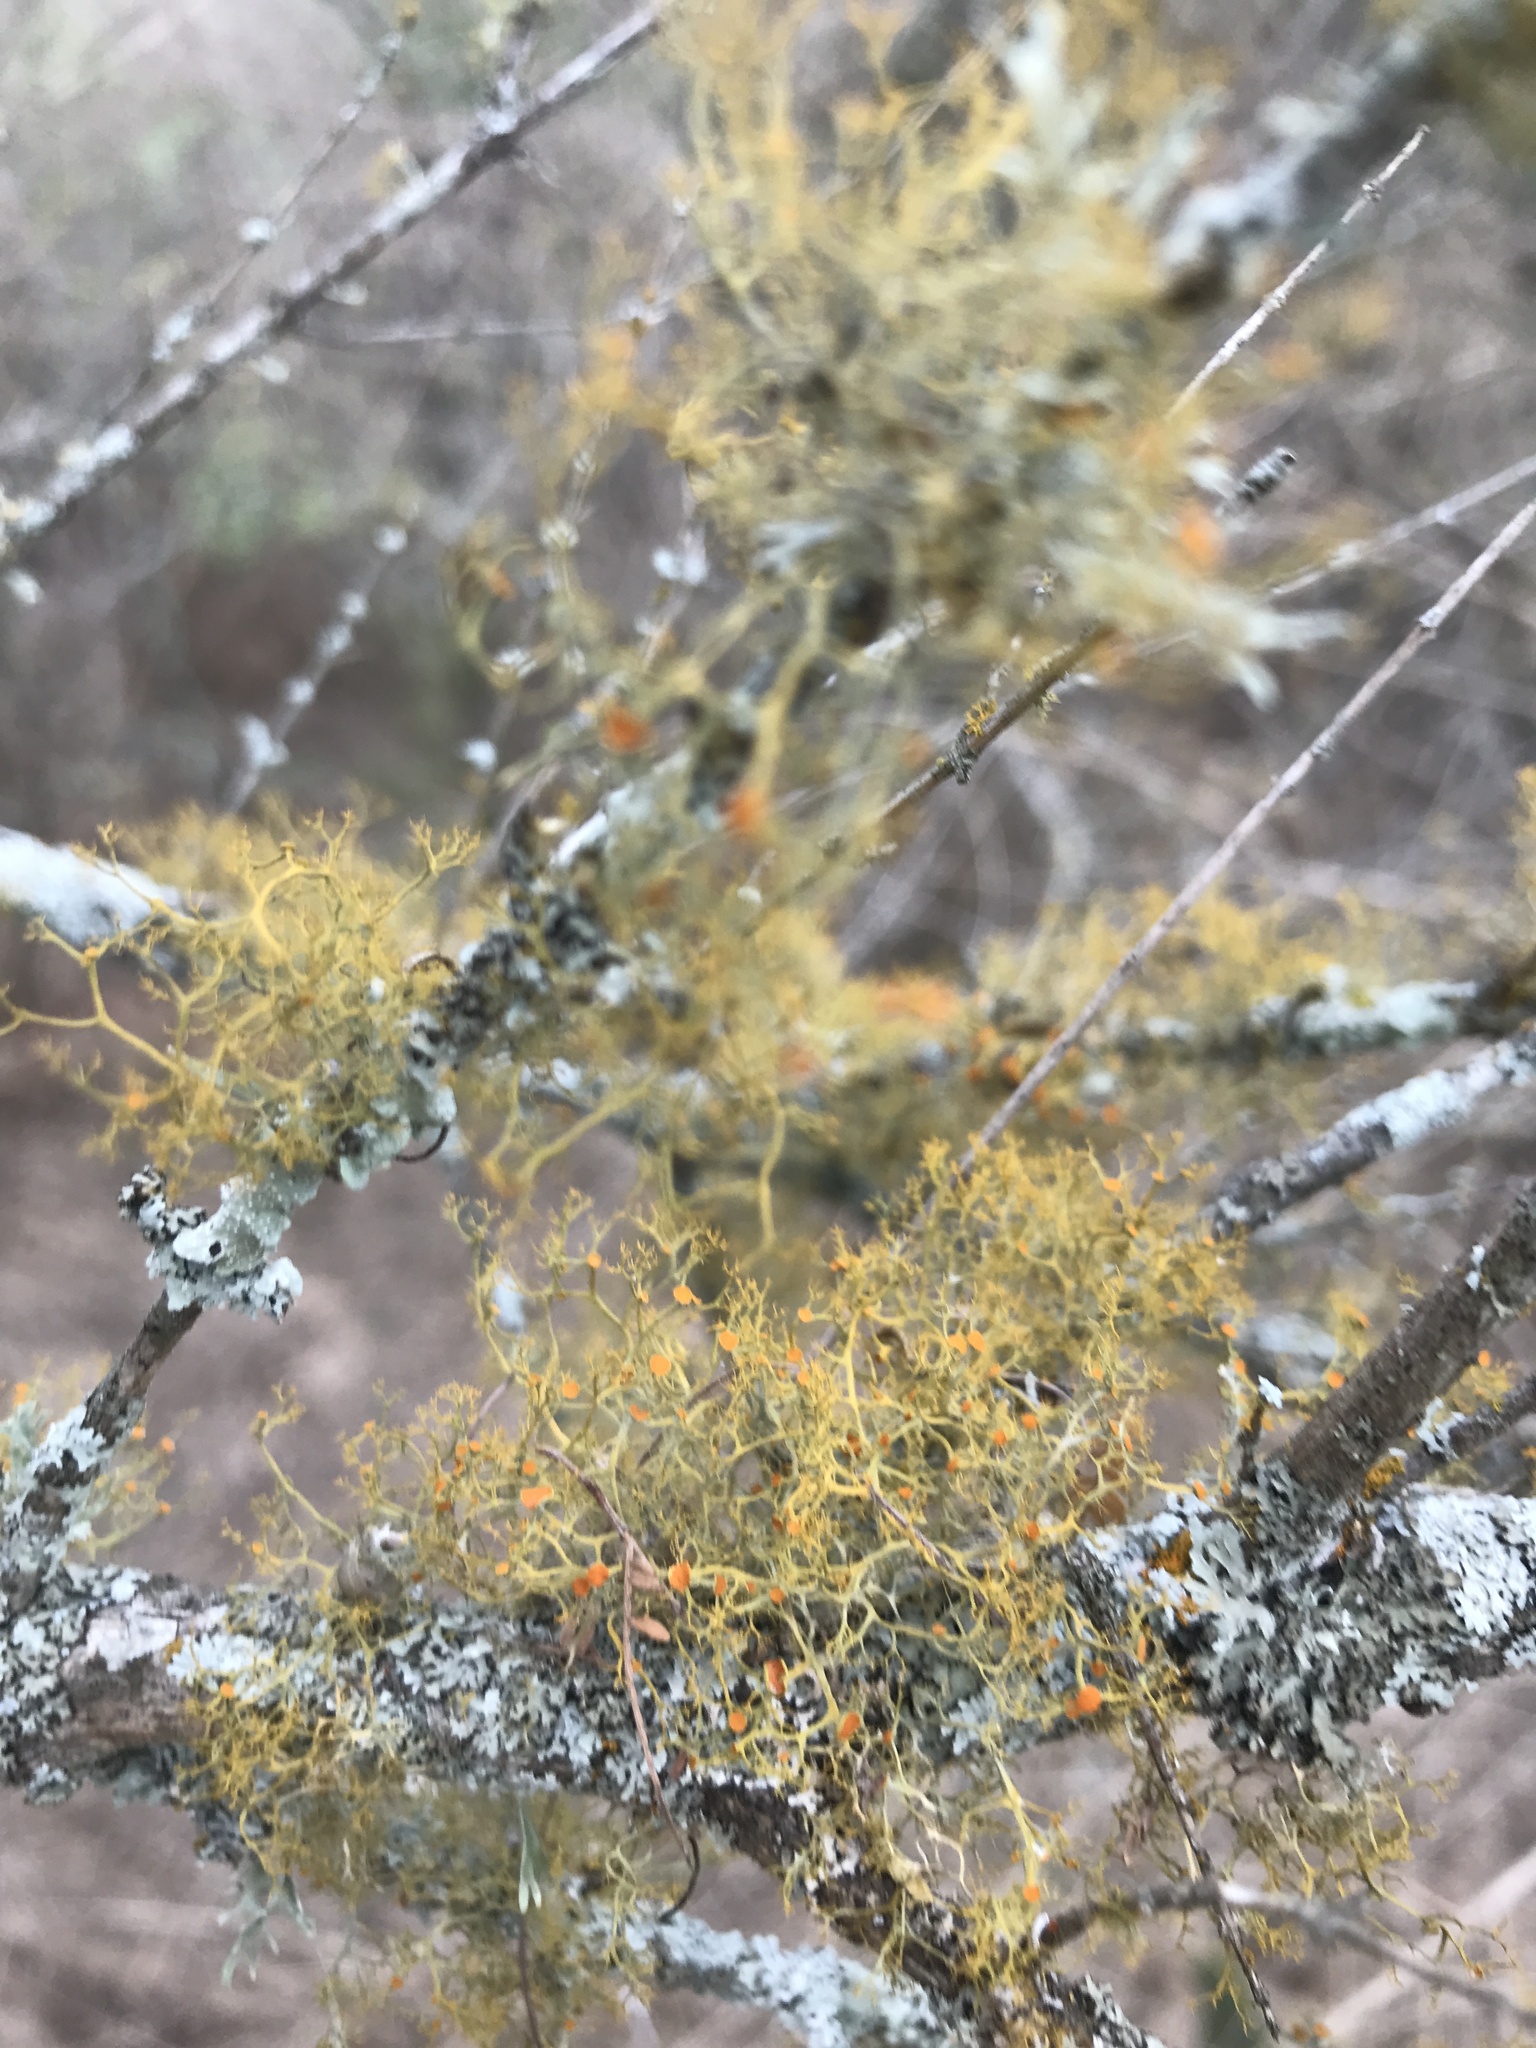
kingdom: Fungi
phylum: Ascomycota
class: Lecanoromycetes
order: Teloschistales
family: Teloschistaceae
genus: Teloschistes
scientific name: Teloschistes exilis
